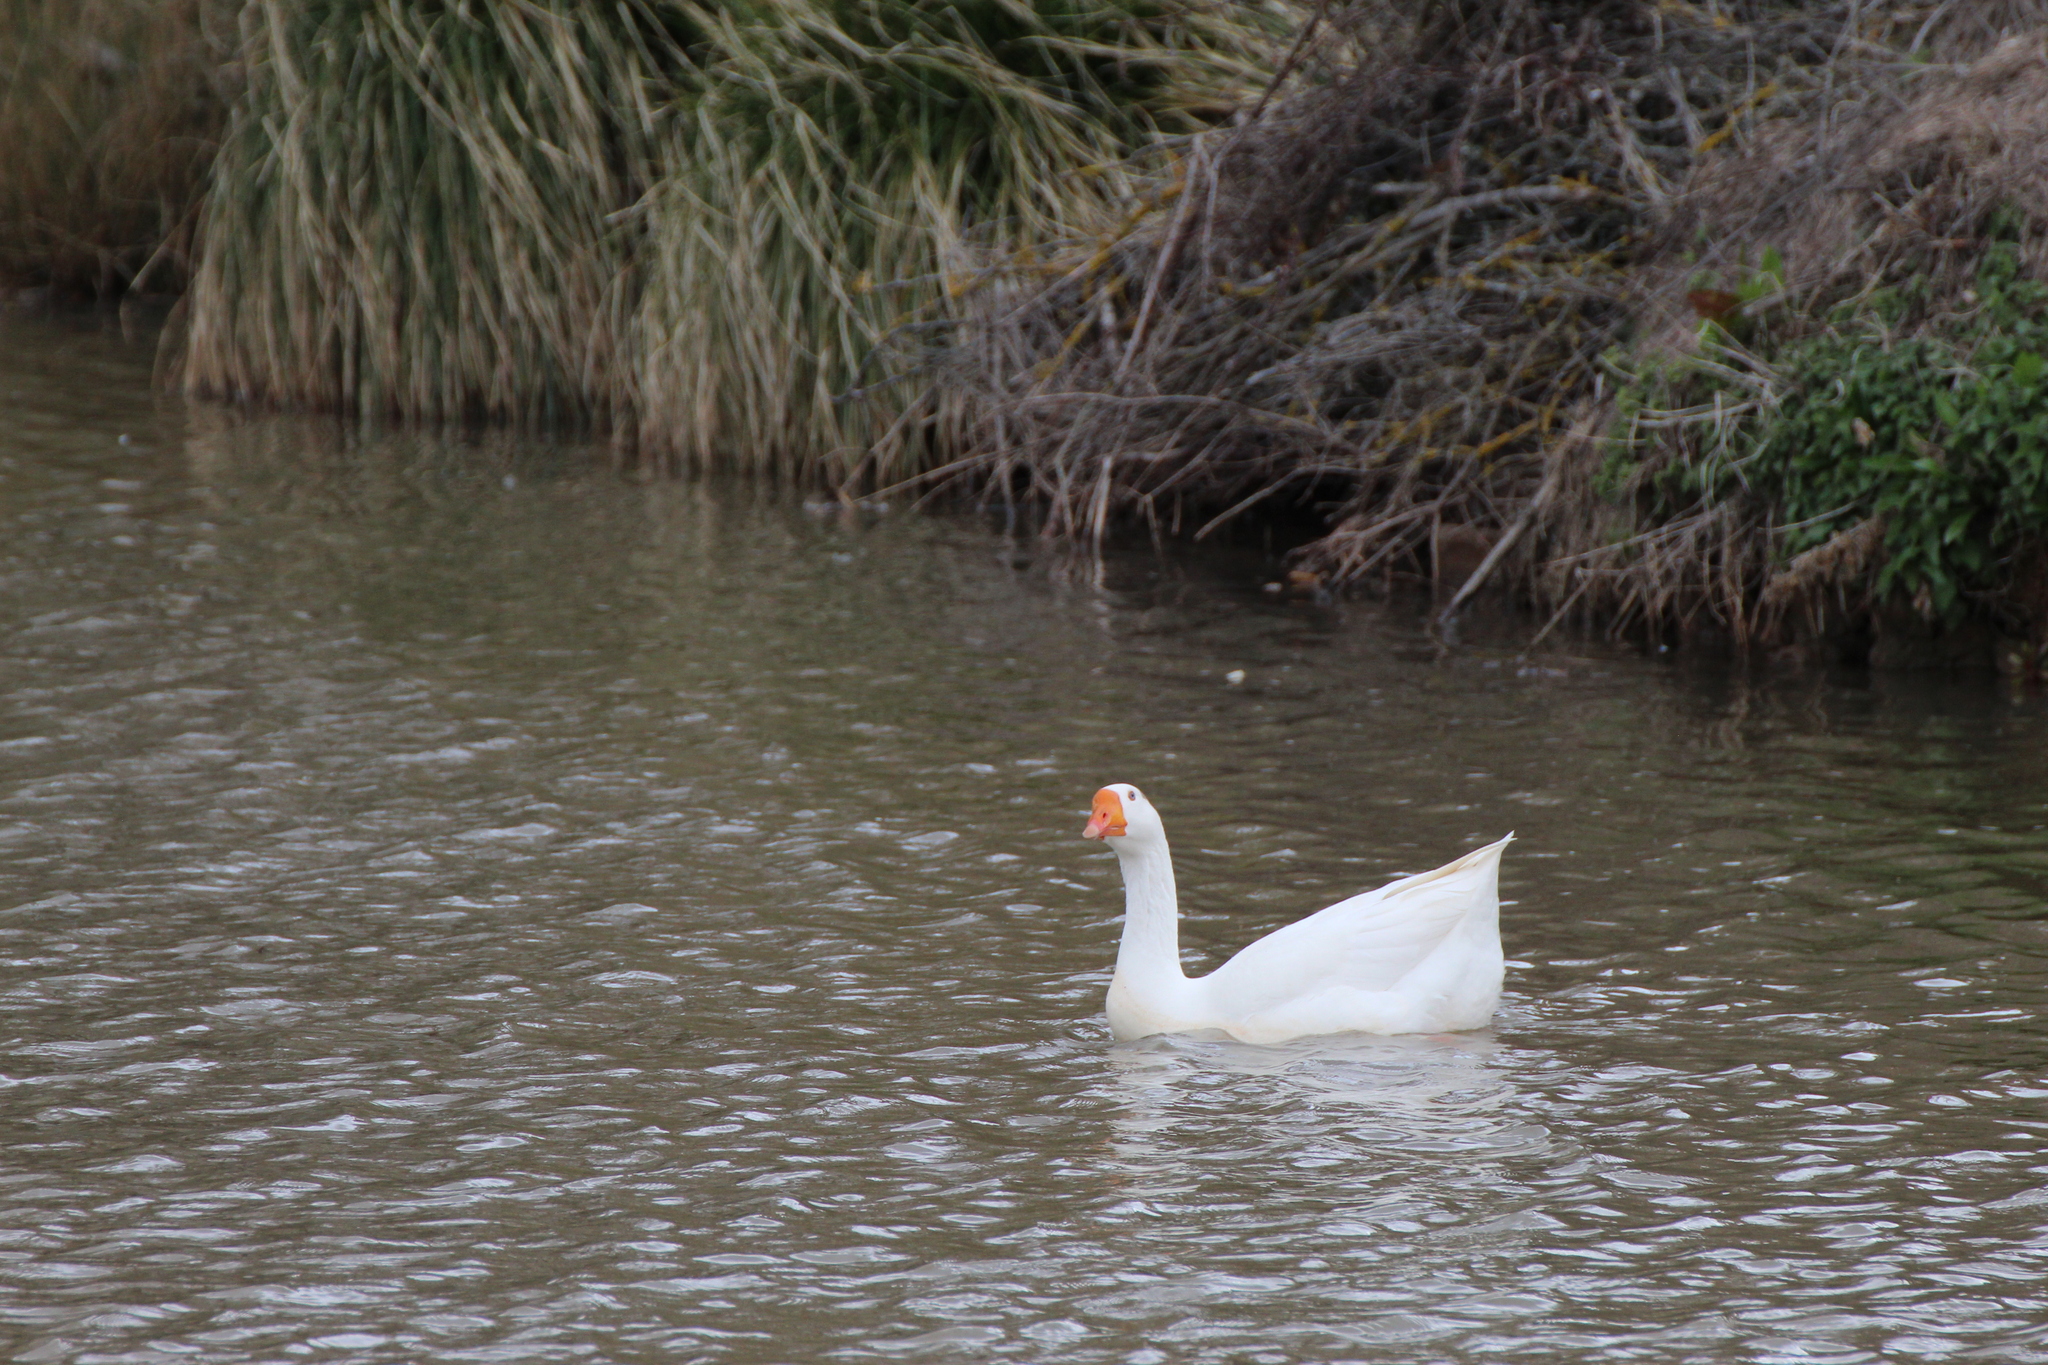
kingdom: Animalia
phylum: Chordata
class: Aves
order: Anseriformes
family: Anatidae
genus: Anser
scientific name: Anser
